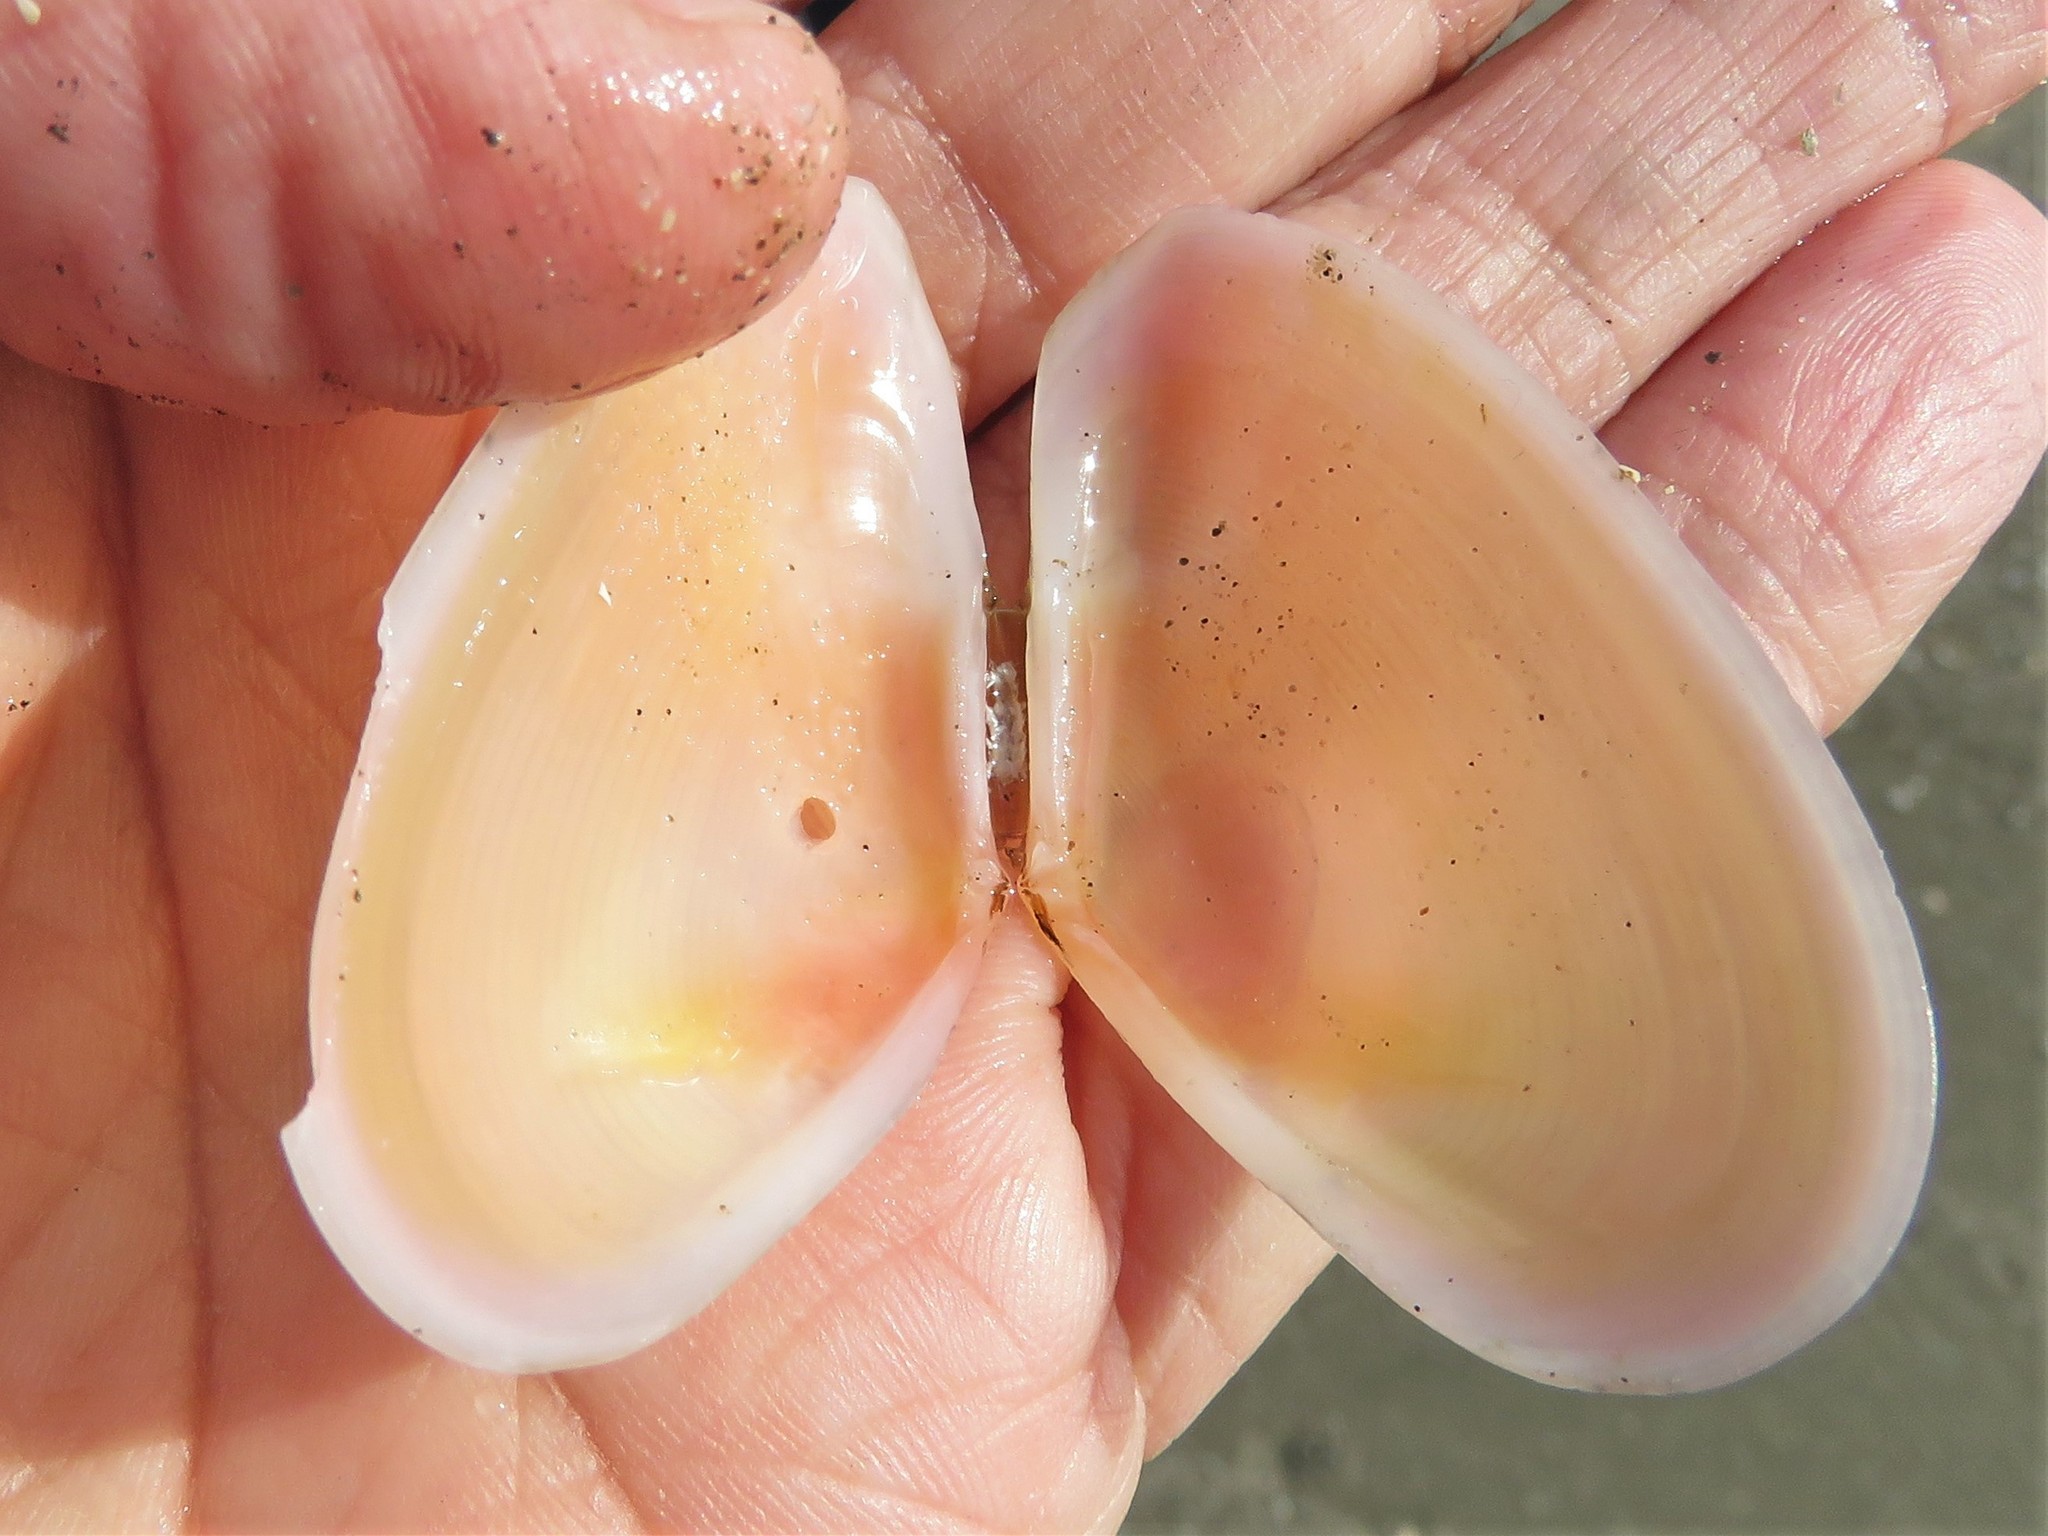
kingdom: Animalia
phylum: Mollusca
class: Bivalvia
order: Cardiida
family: Tellinidae
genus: Eurytellina
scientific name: Eurytellina alternata
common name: Alternate tellin
